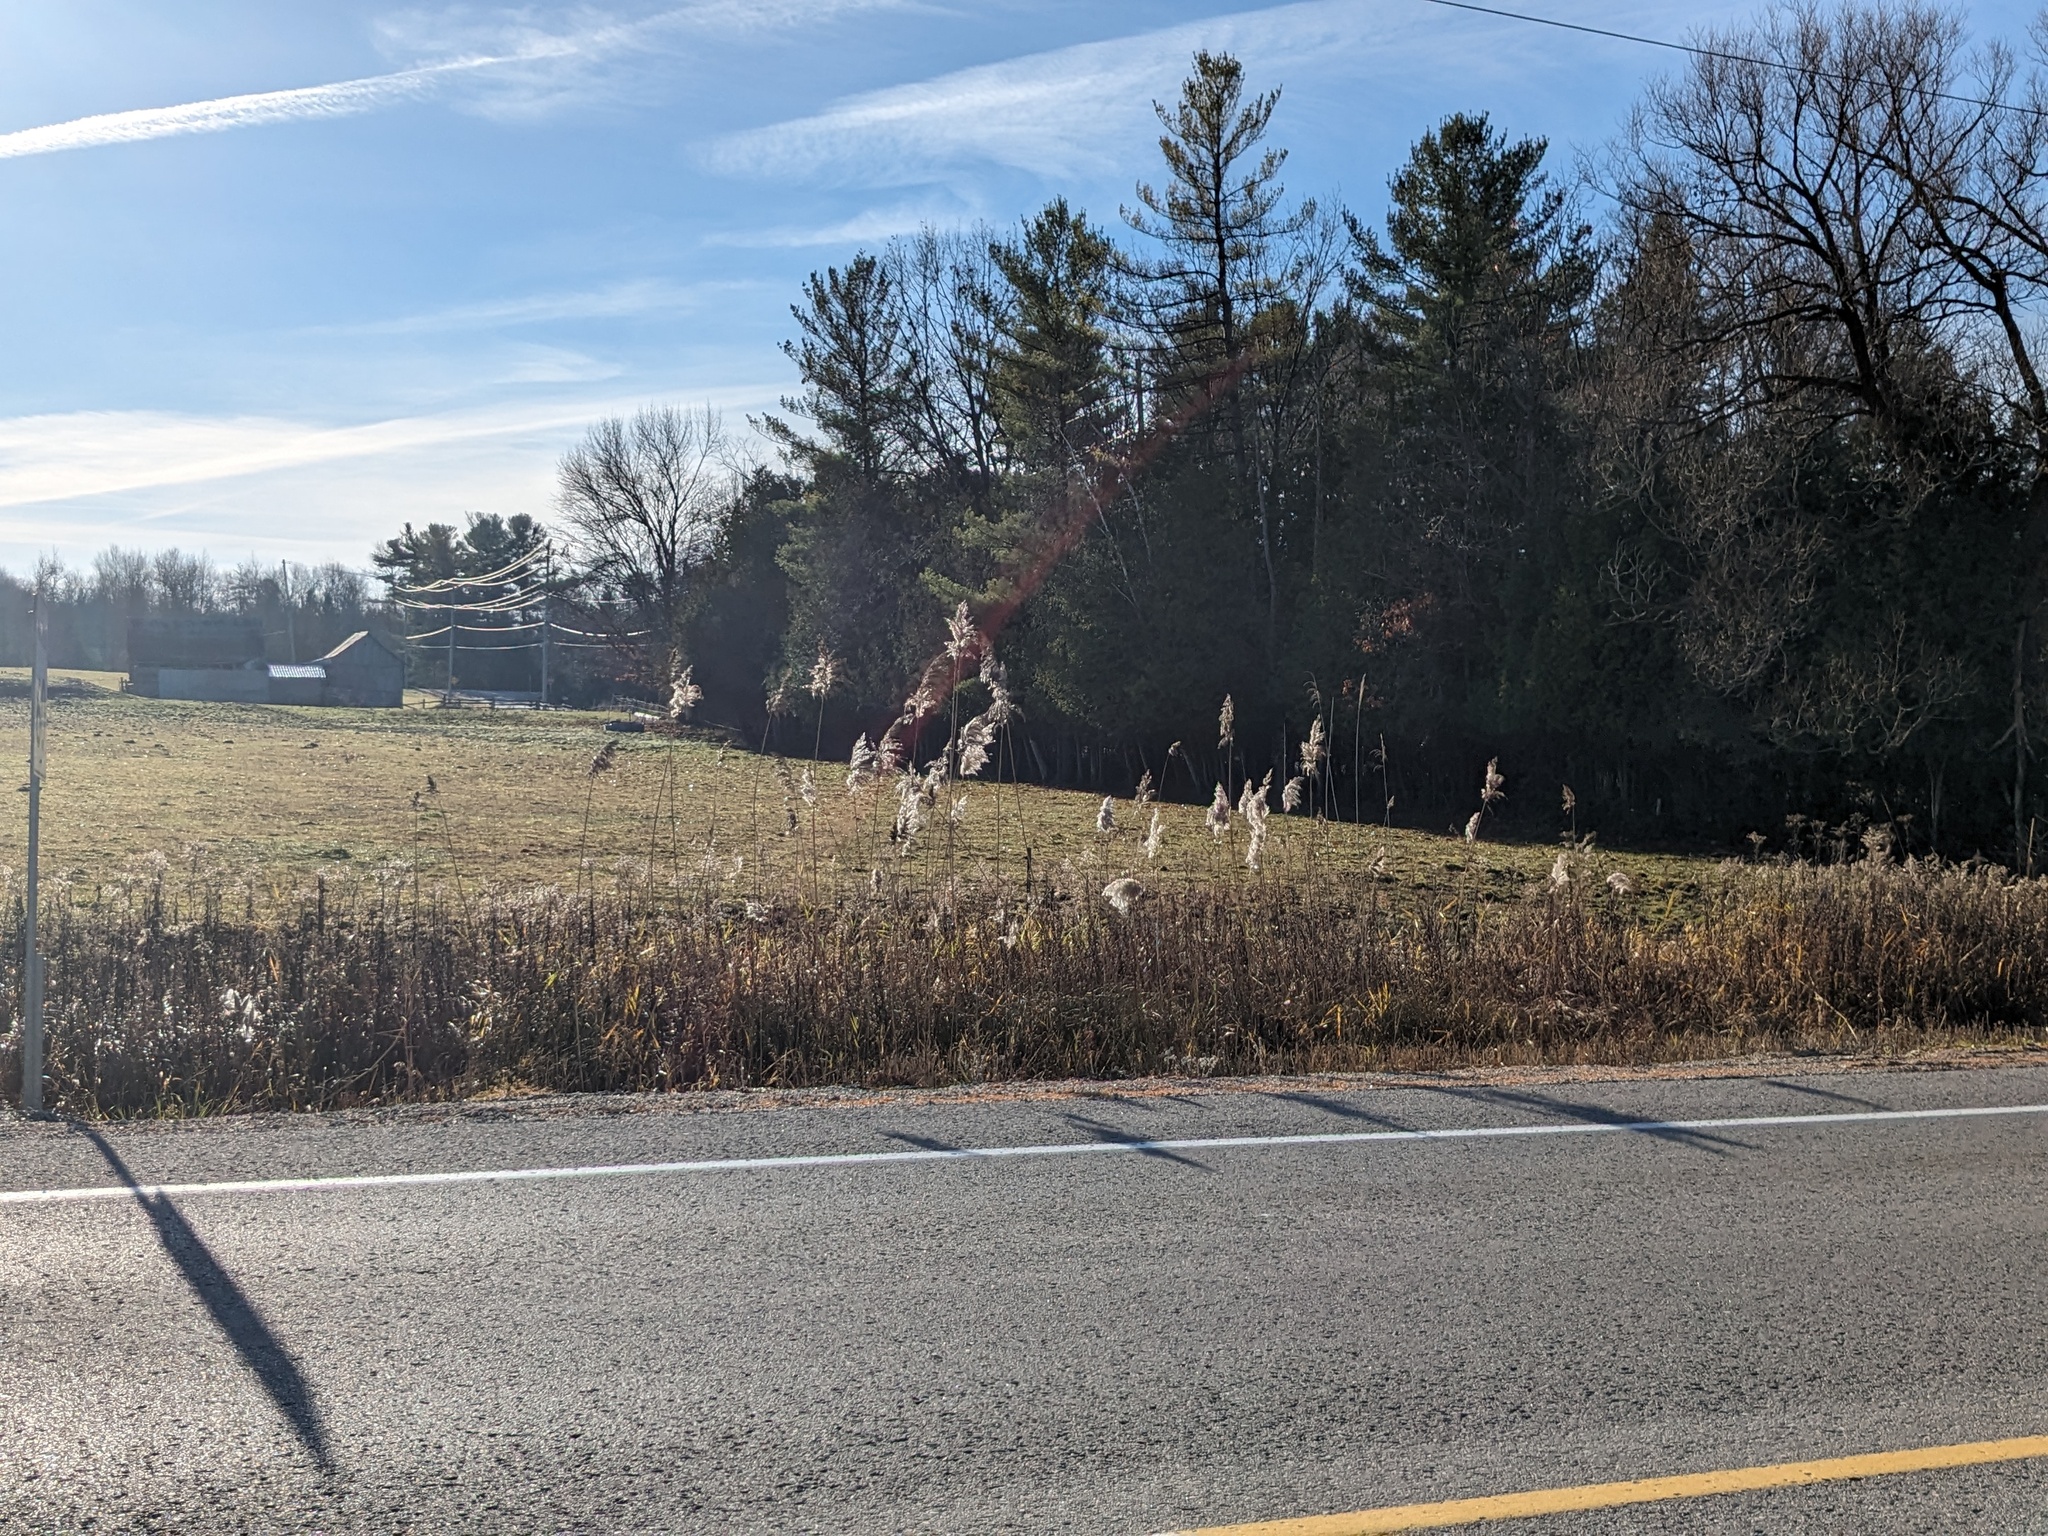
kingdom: Plantae
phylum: Tracheophyta
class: Liliopsida
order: Poales
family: Poaceae
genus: Phragmites
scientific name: Phragmites australis
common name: Common reed
